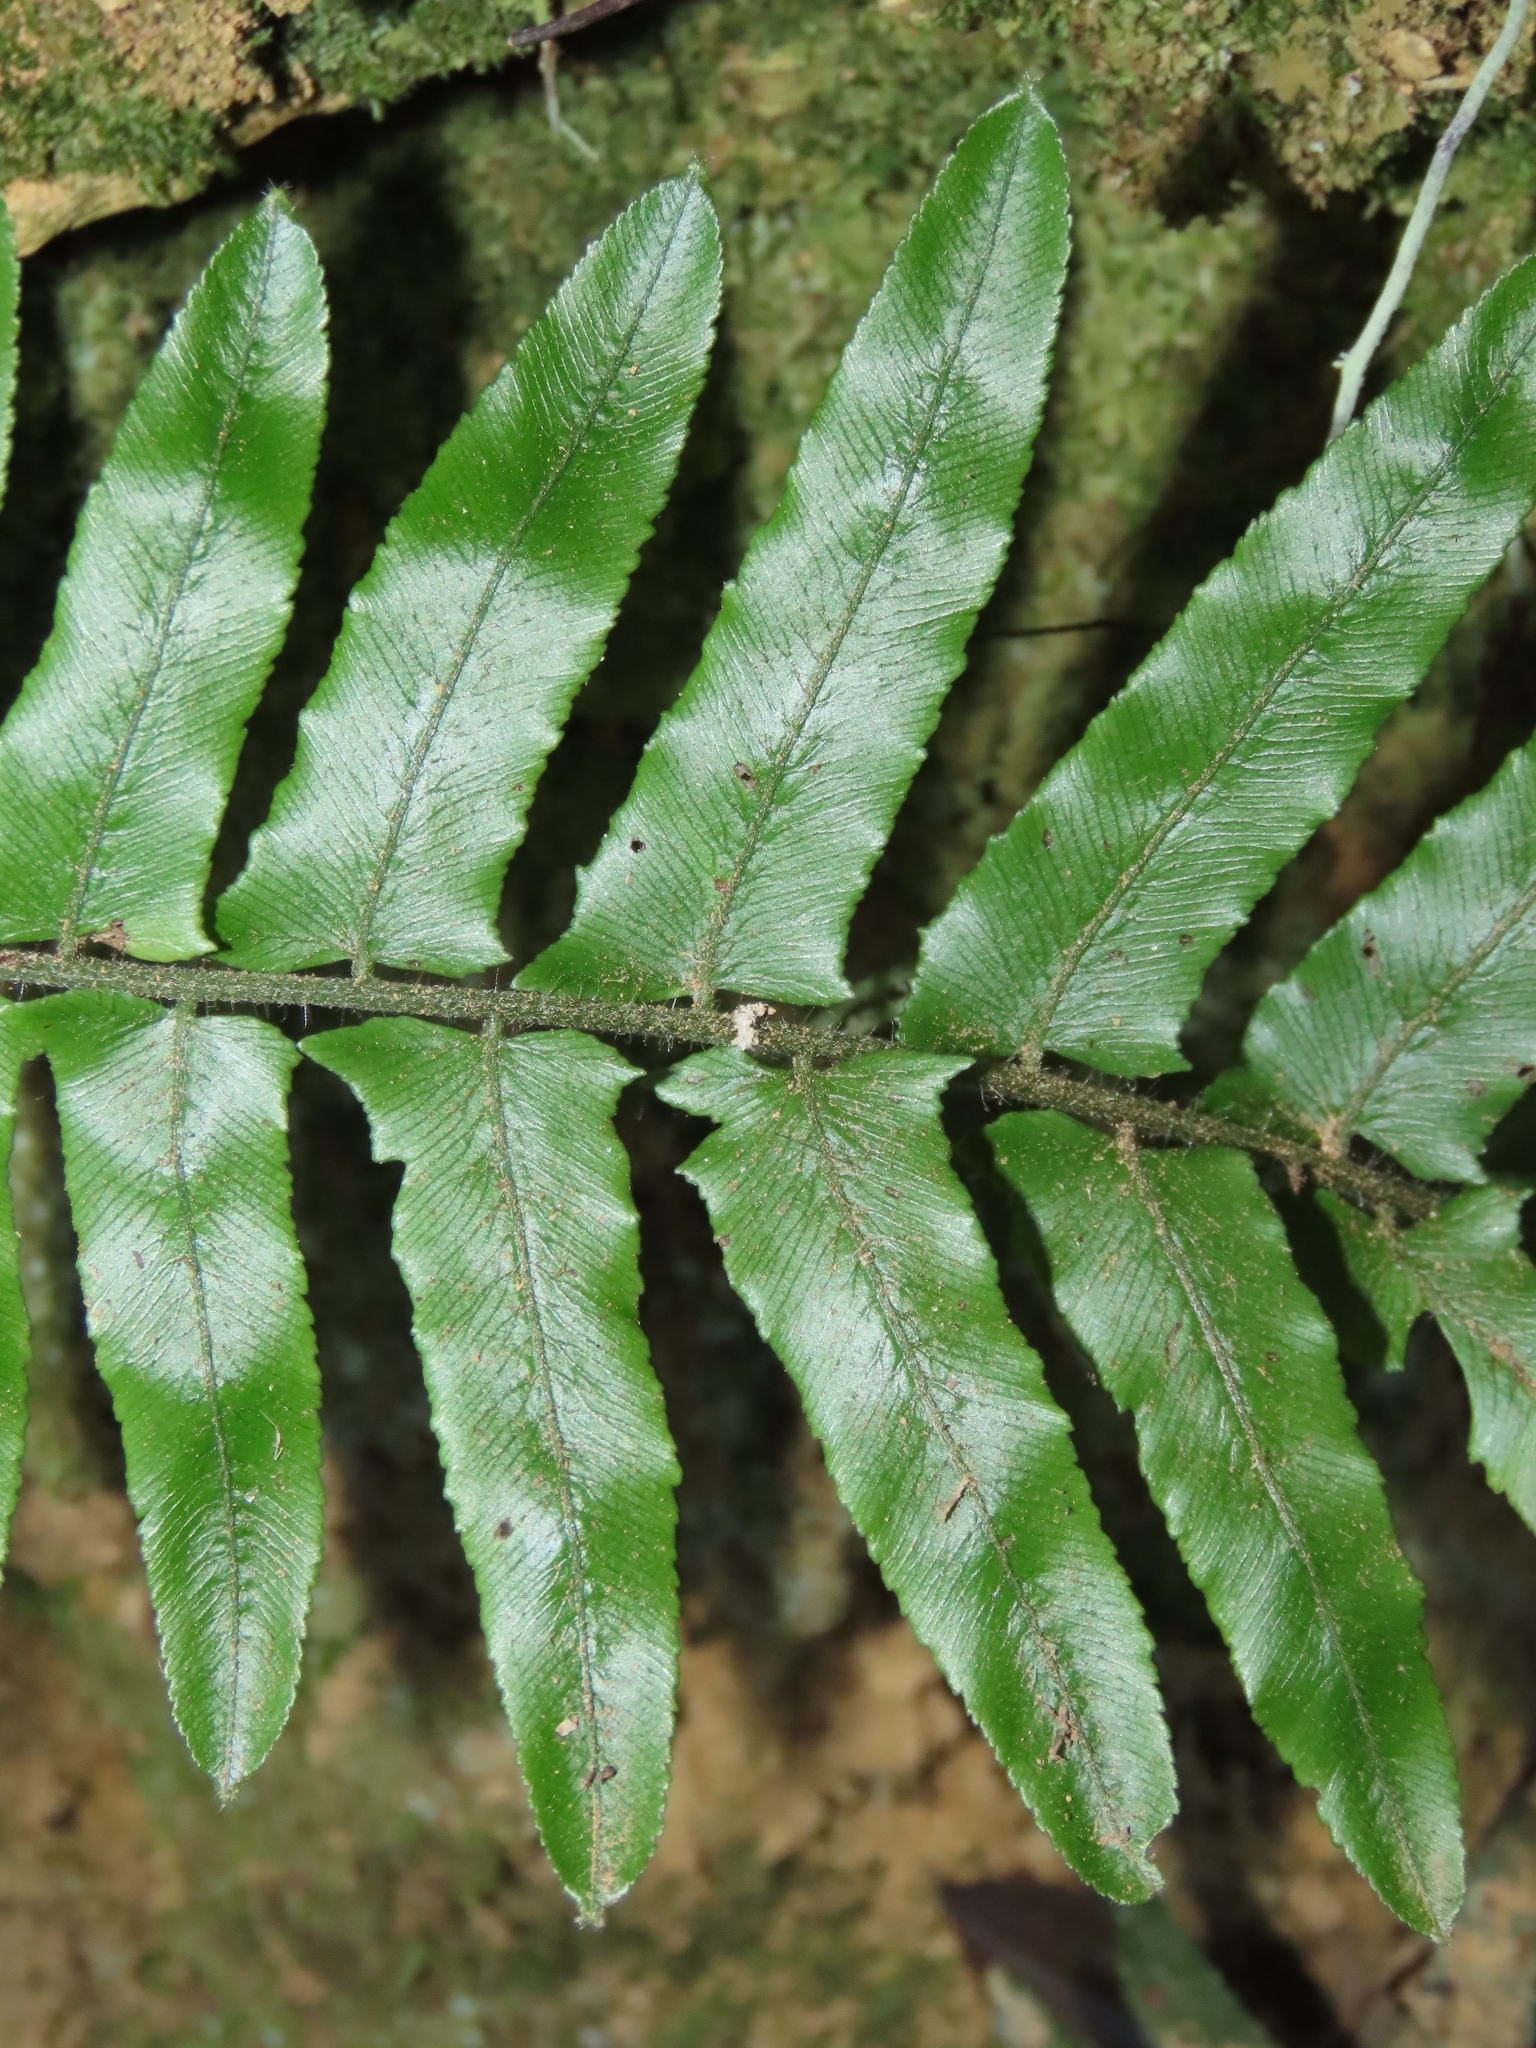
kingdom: Plantae
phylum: Tracheophyta
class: Polypodiopsida
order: Polypodiales
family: Dennstaedtiaceae
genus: Microlepia
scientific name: Microlepia hookeriana
